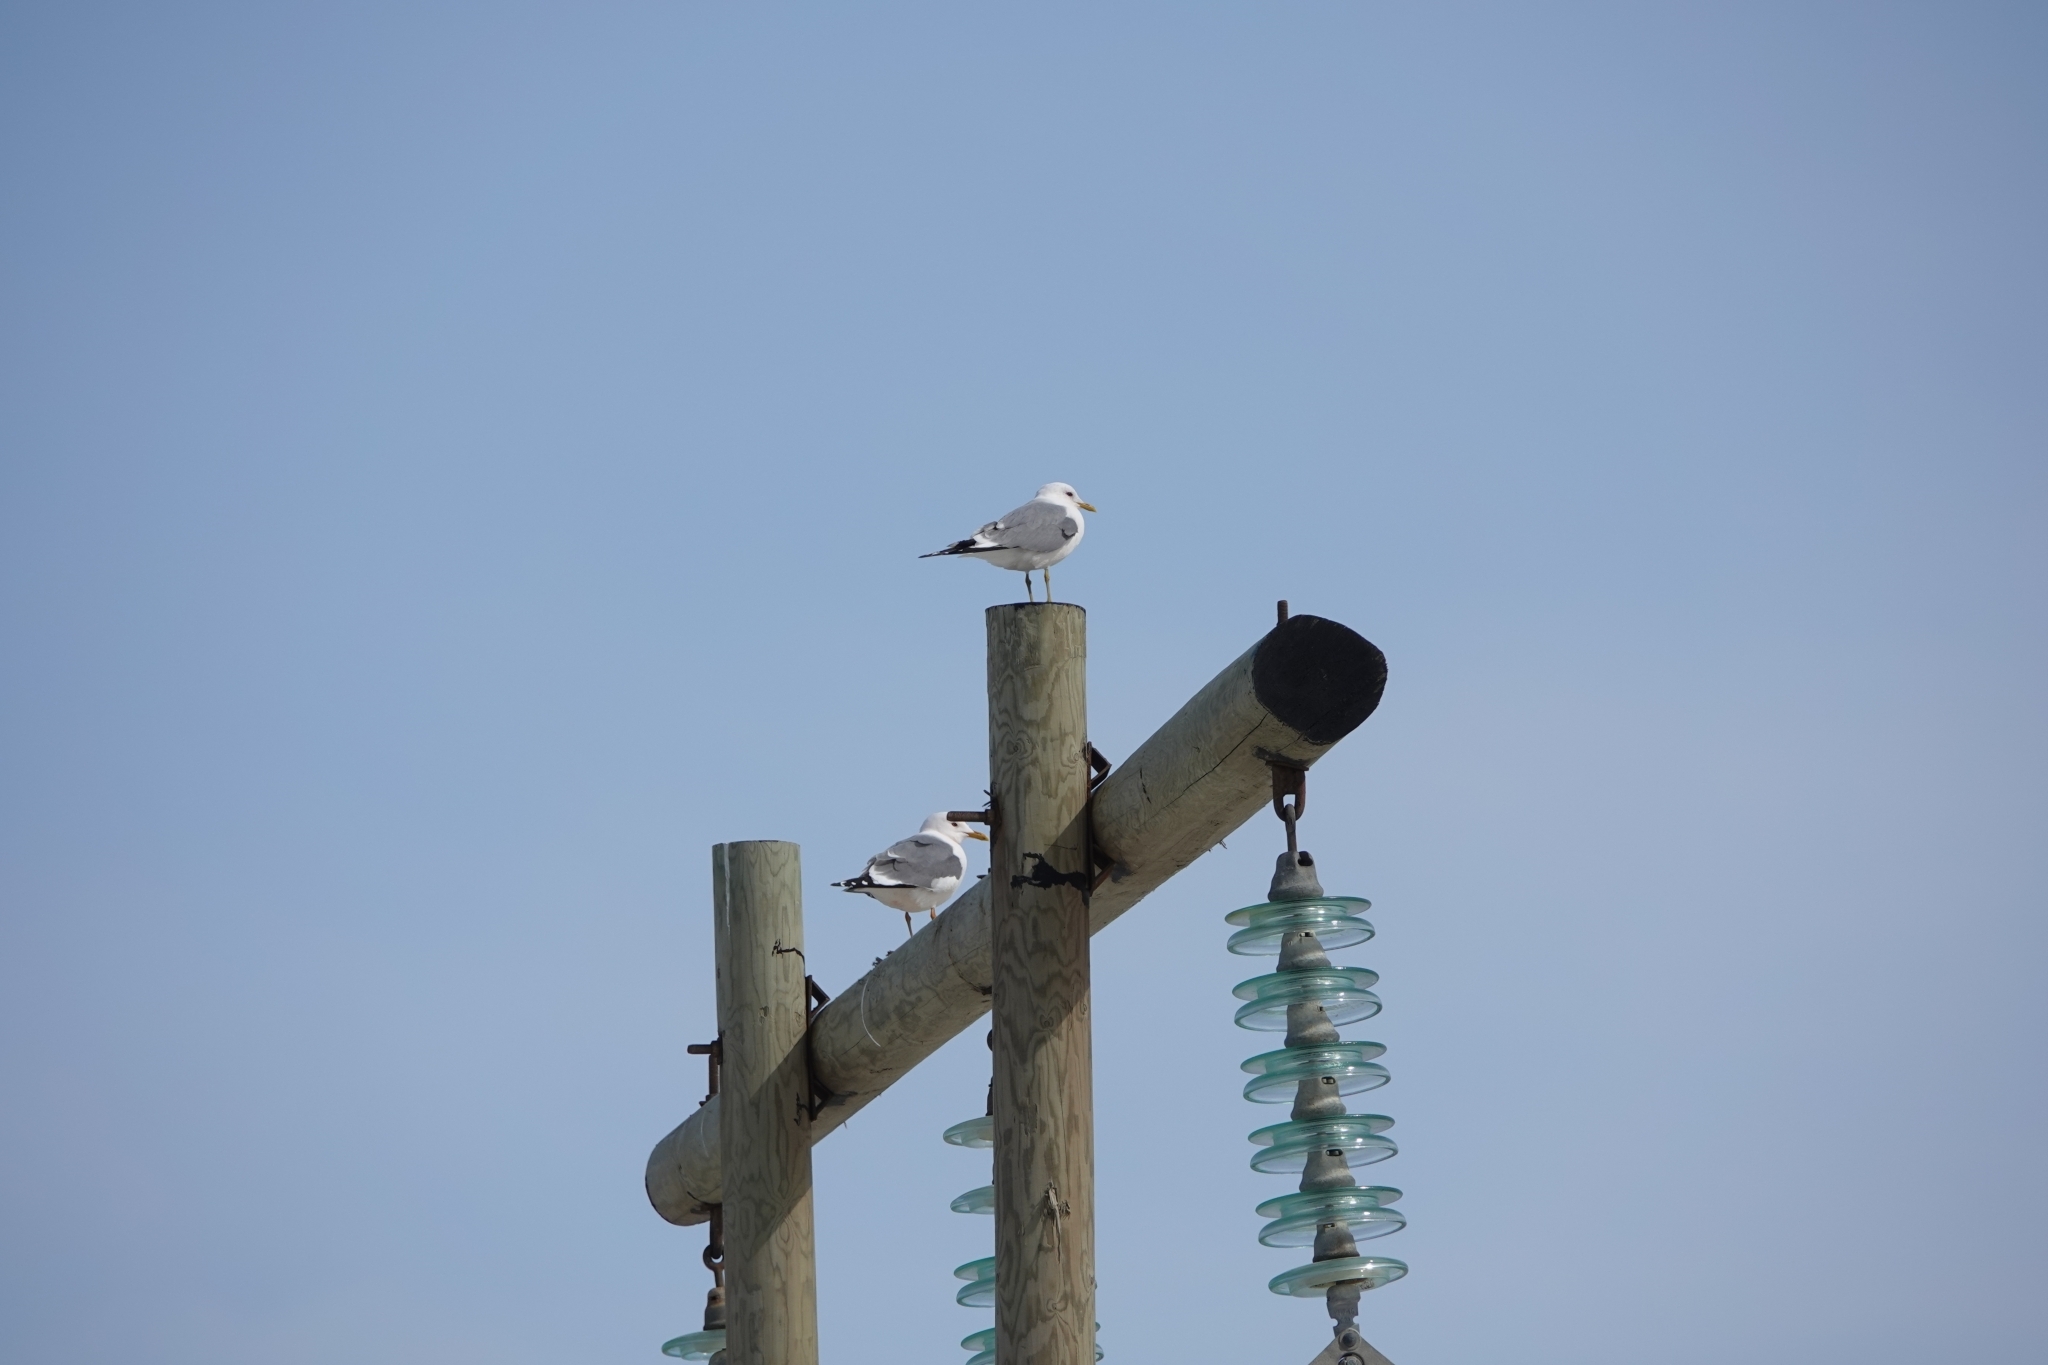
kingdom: Animalia
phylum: Chordata
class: Aves
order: Charadriiformes
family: Laridae
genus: Larus
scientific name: Larus canus
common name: Mew gull
